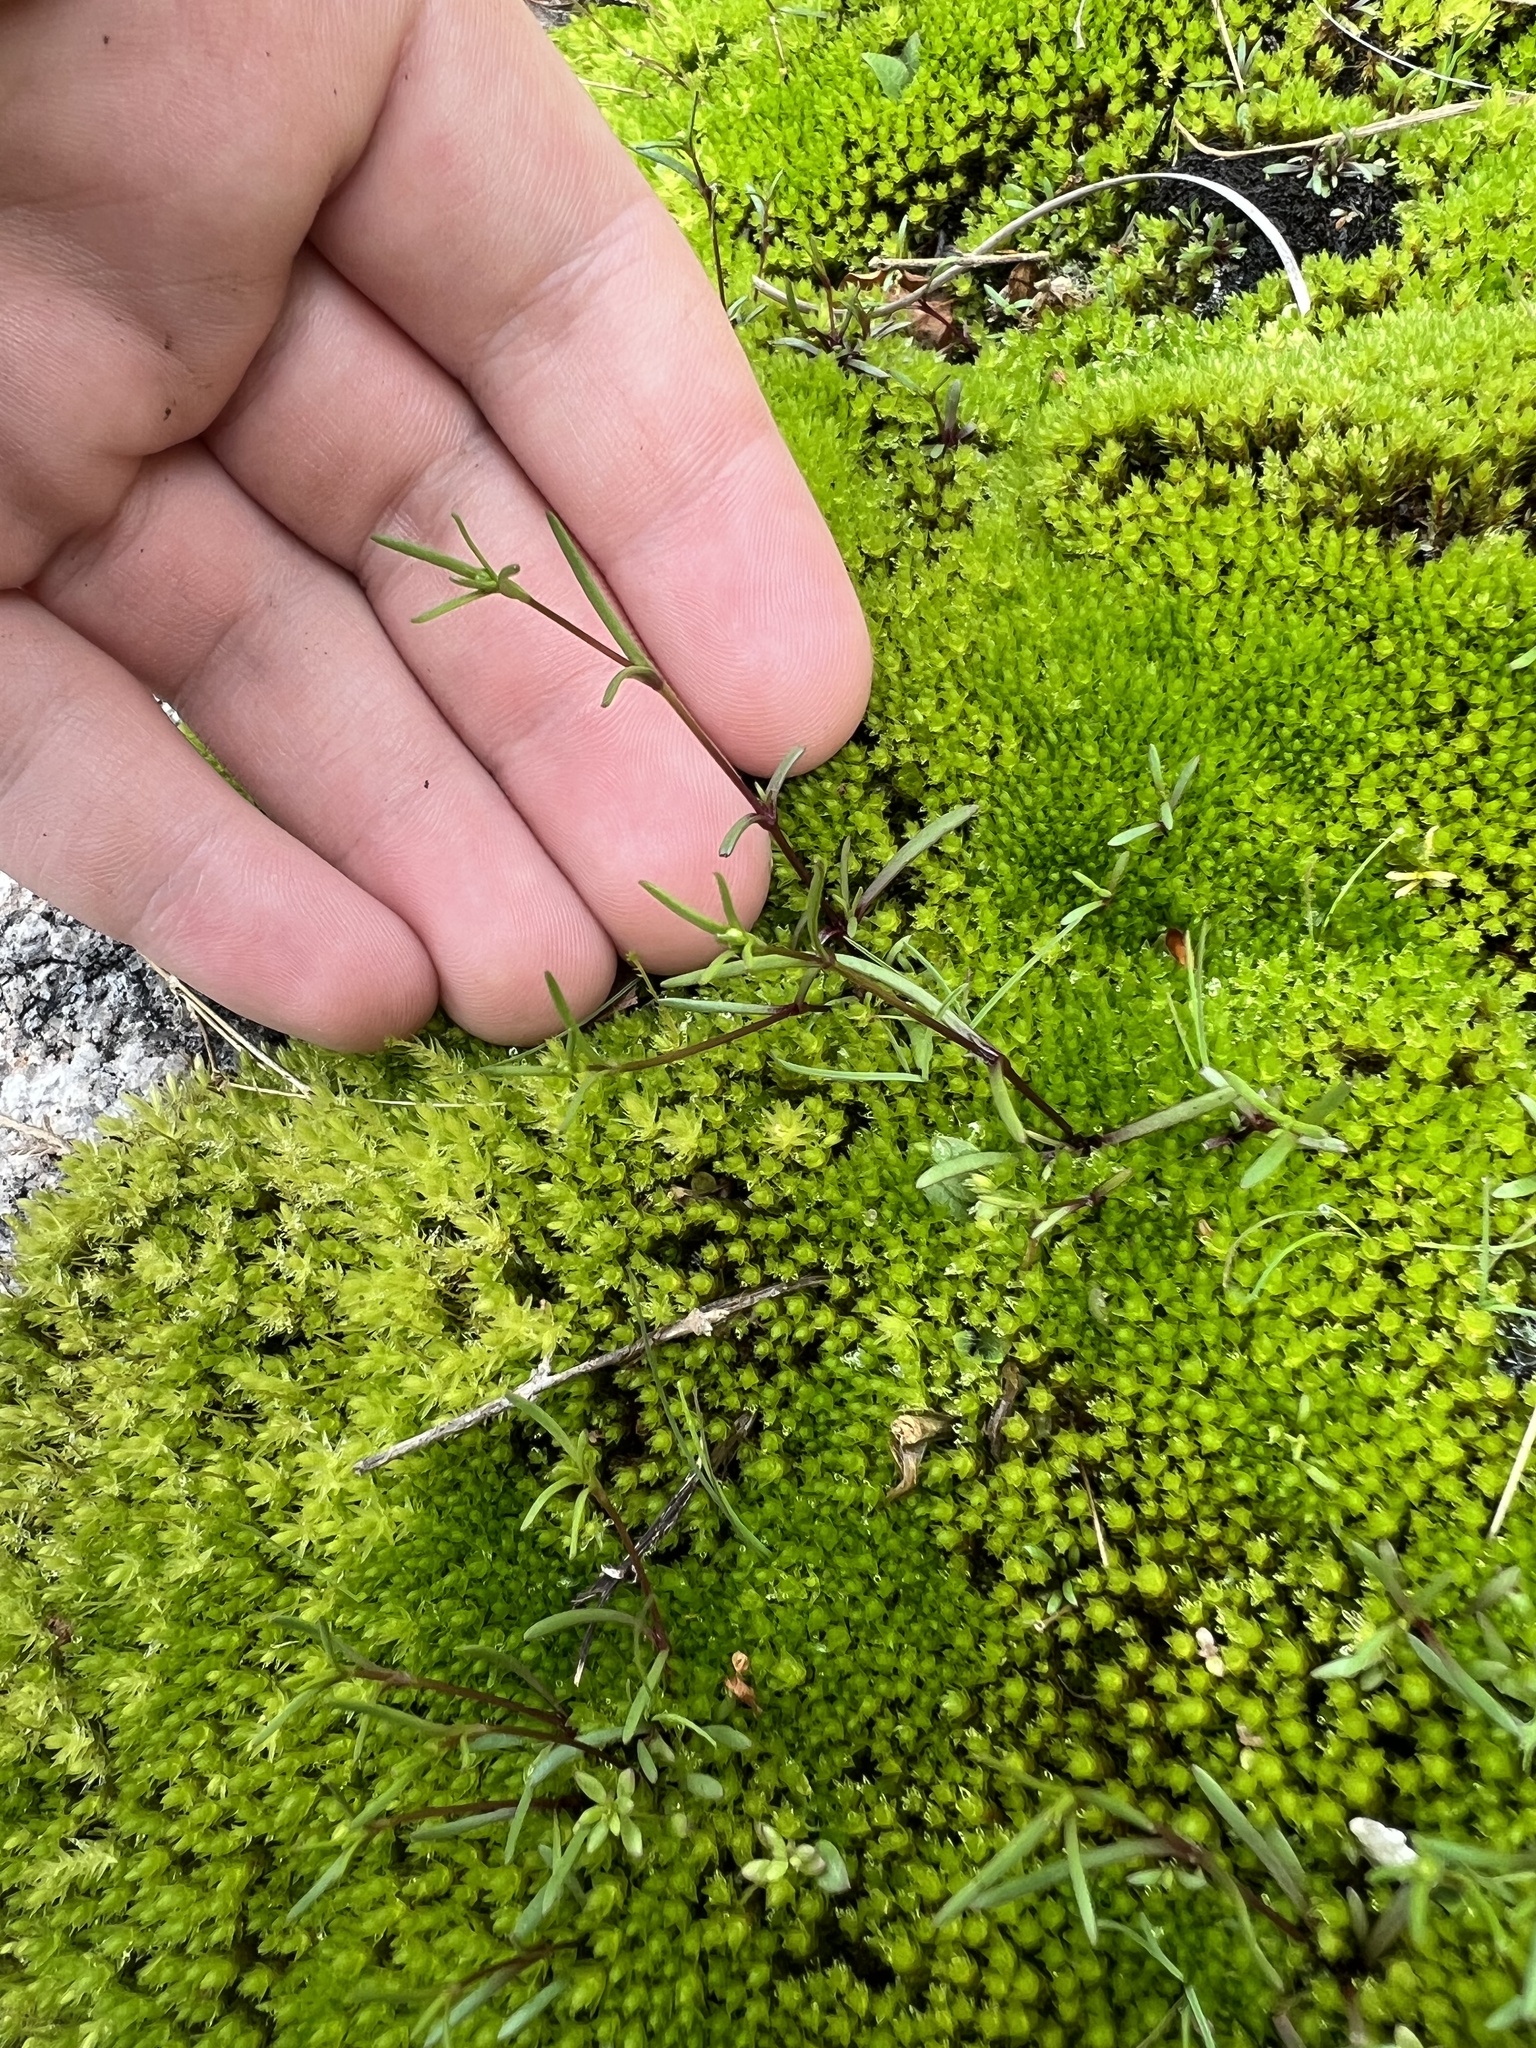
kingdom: Plantae
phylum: Tracheophyta
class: Magnoliopsida
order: Caryophyllales
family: Caryophyllaceae
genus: Geocarpon
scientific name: Geocarpon glabrum
